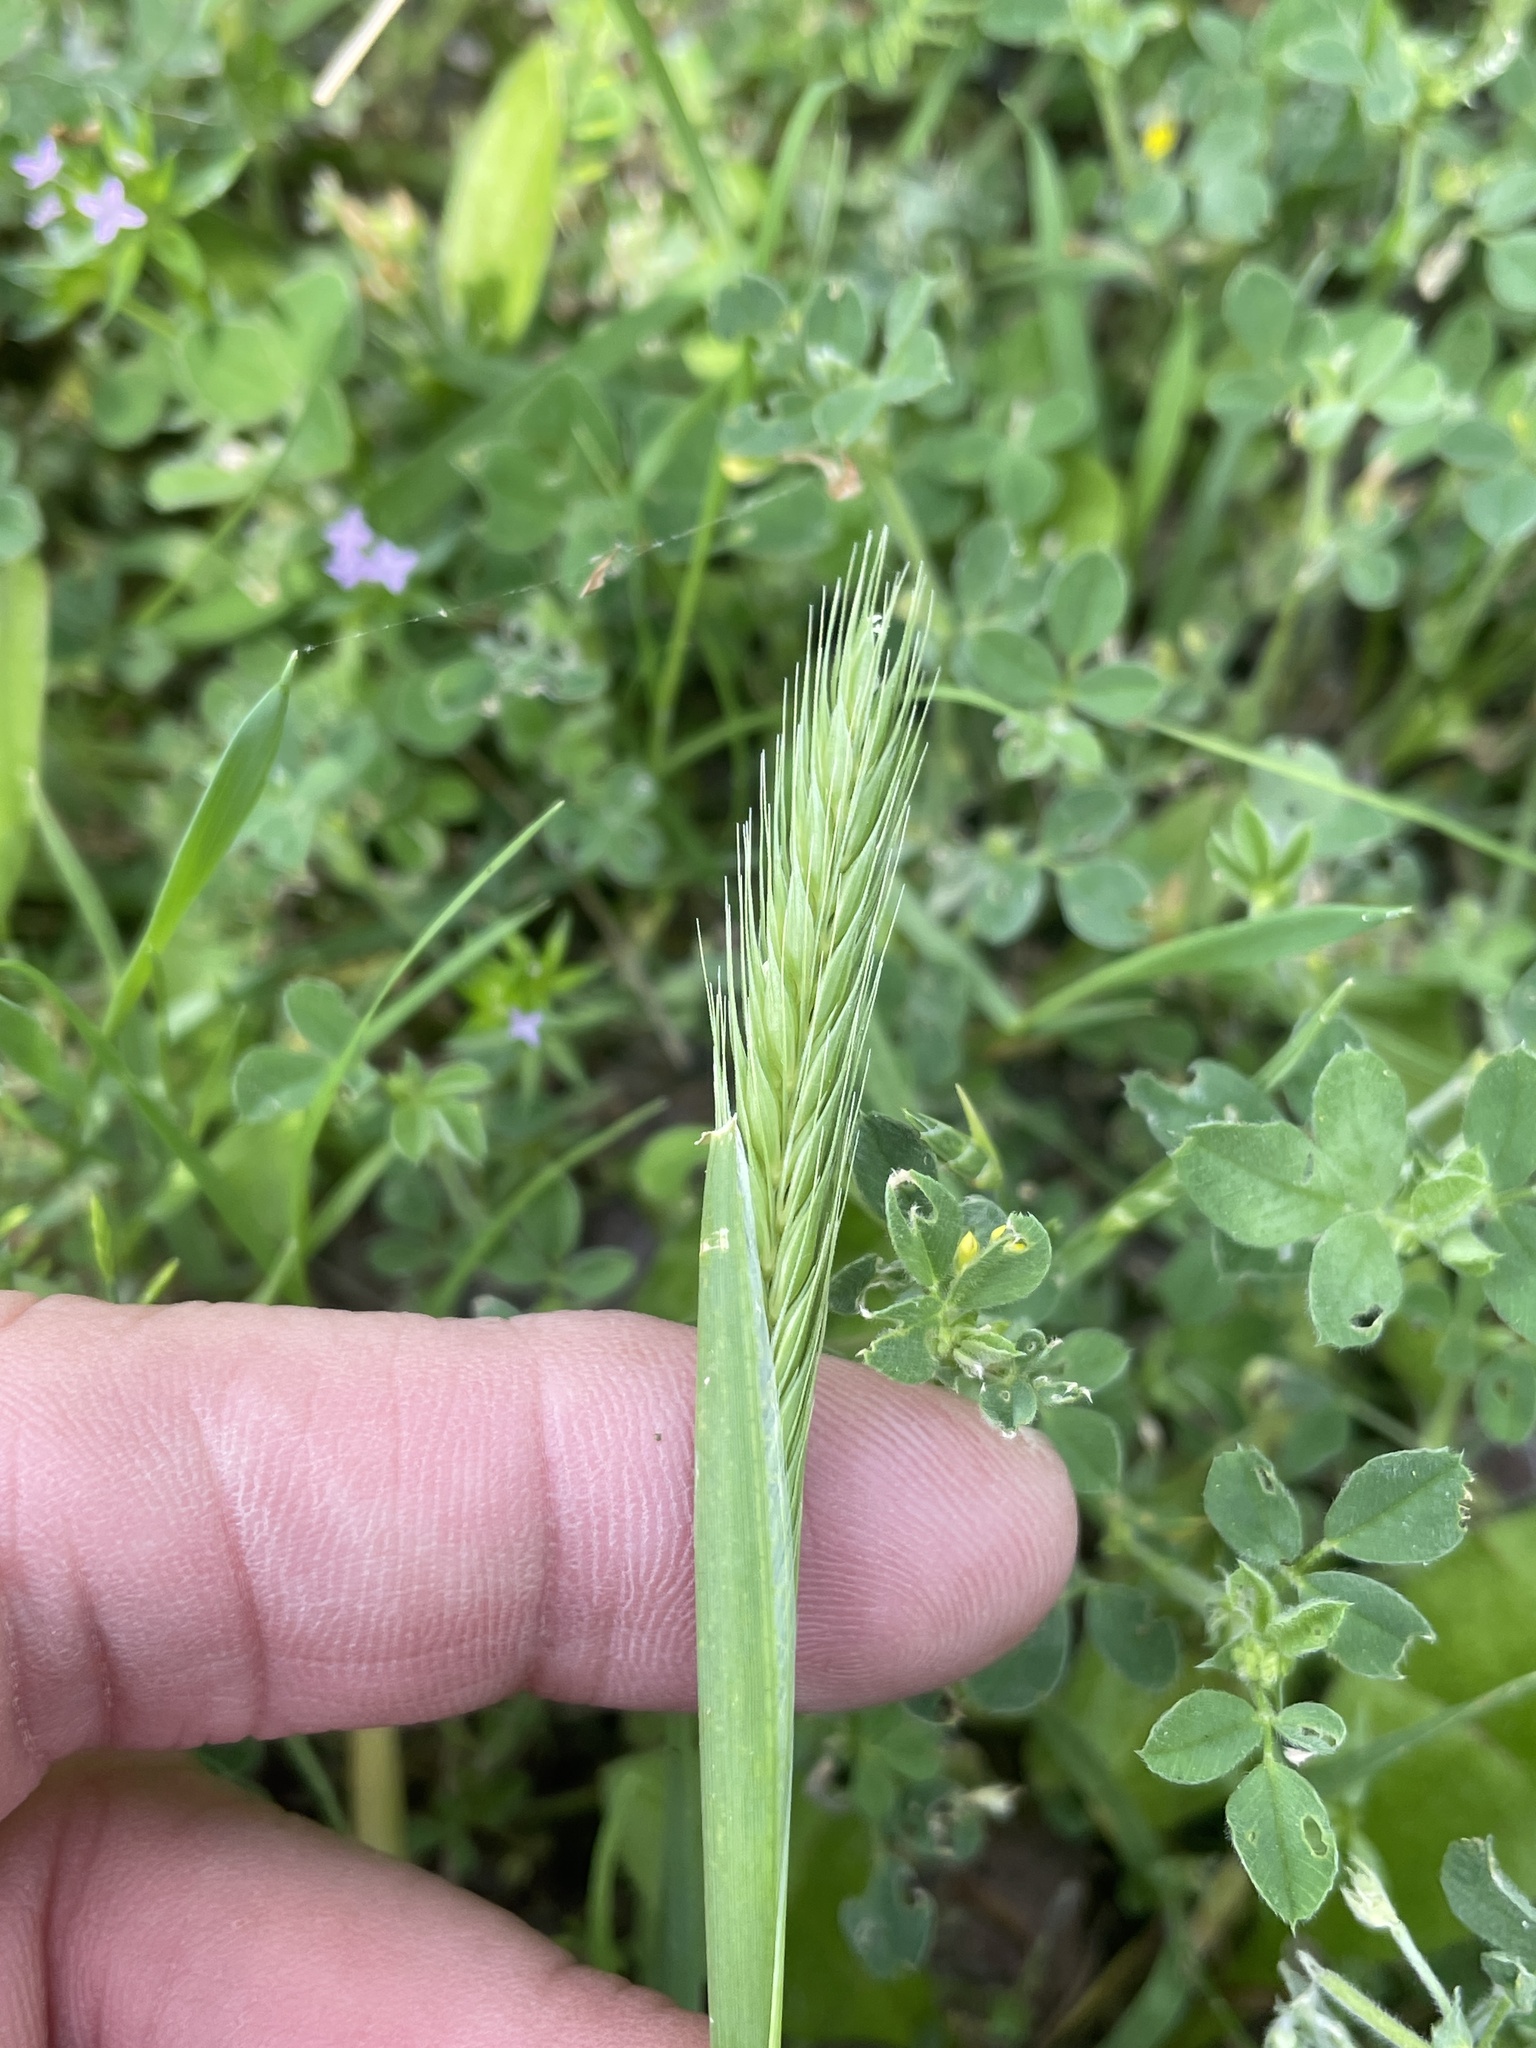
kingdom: Plantae
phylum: Tracheophyta
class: Liliopsida
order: Poales
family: Poaceae
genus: Hordeum
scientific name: Hordeum pusillum
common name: Little barley
